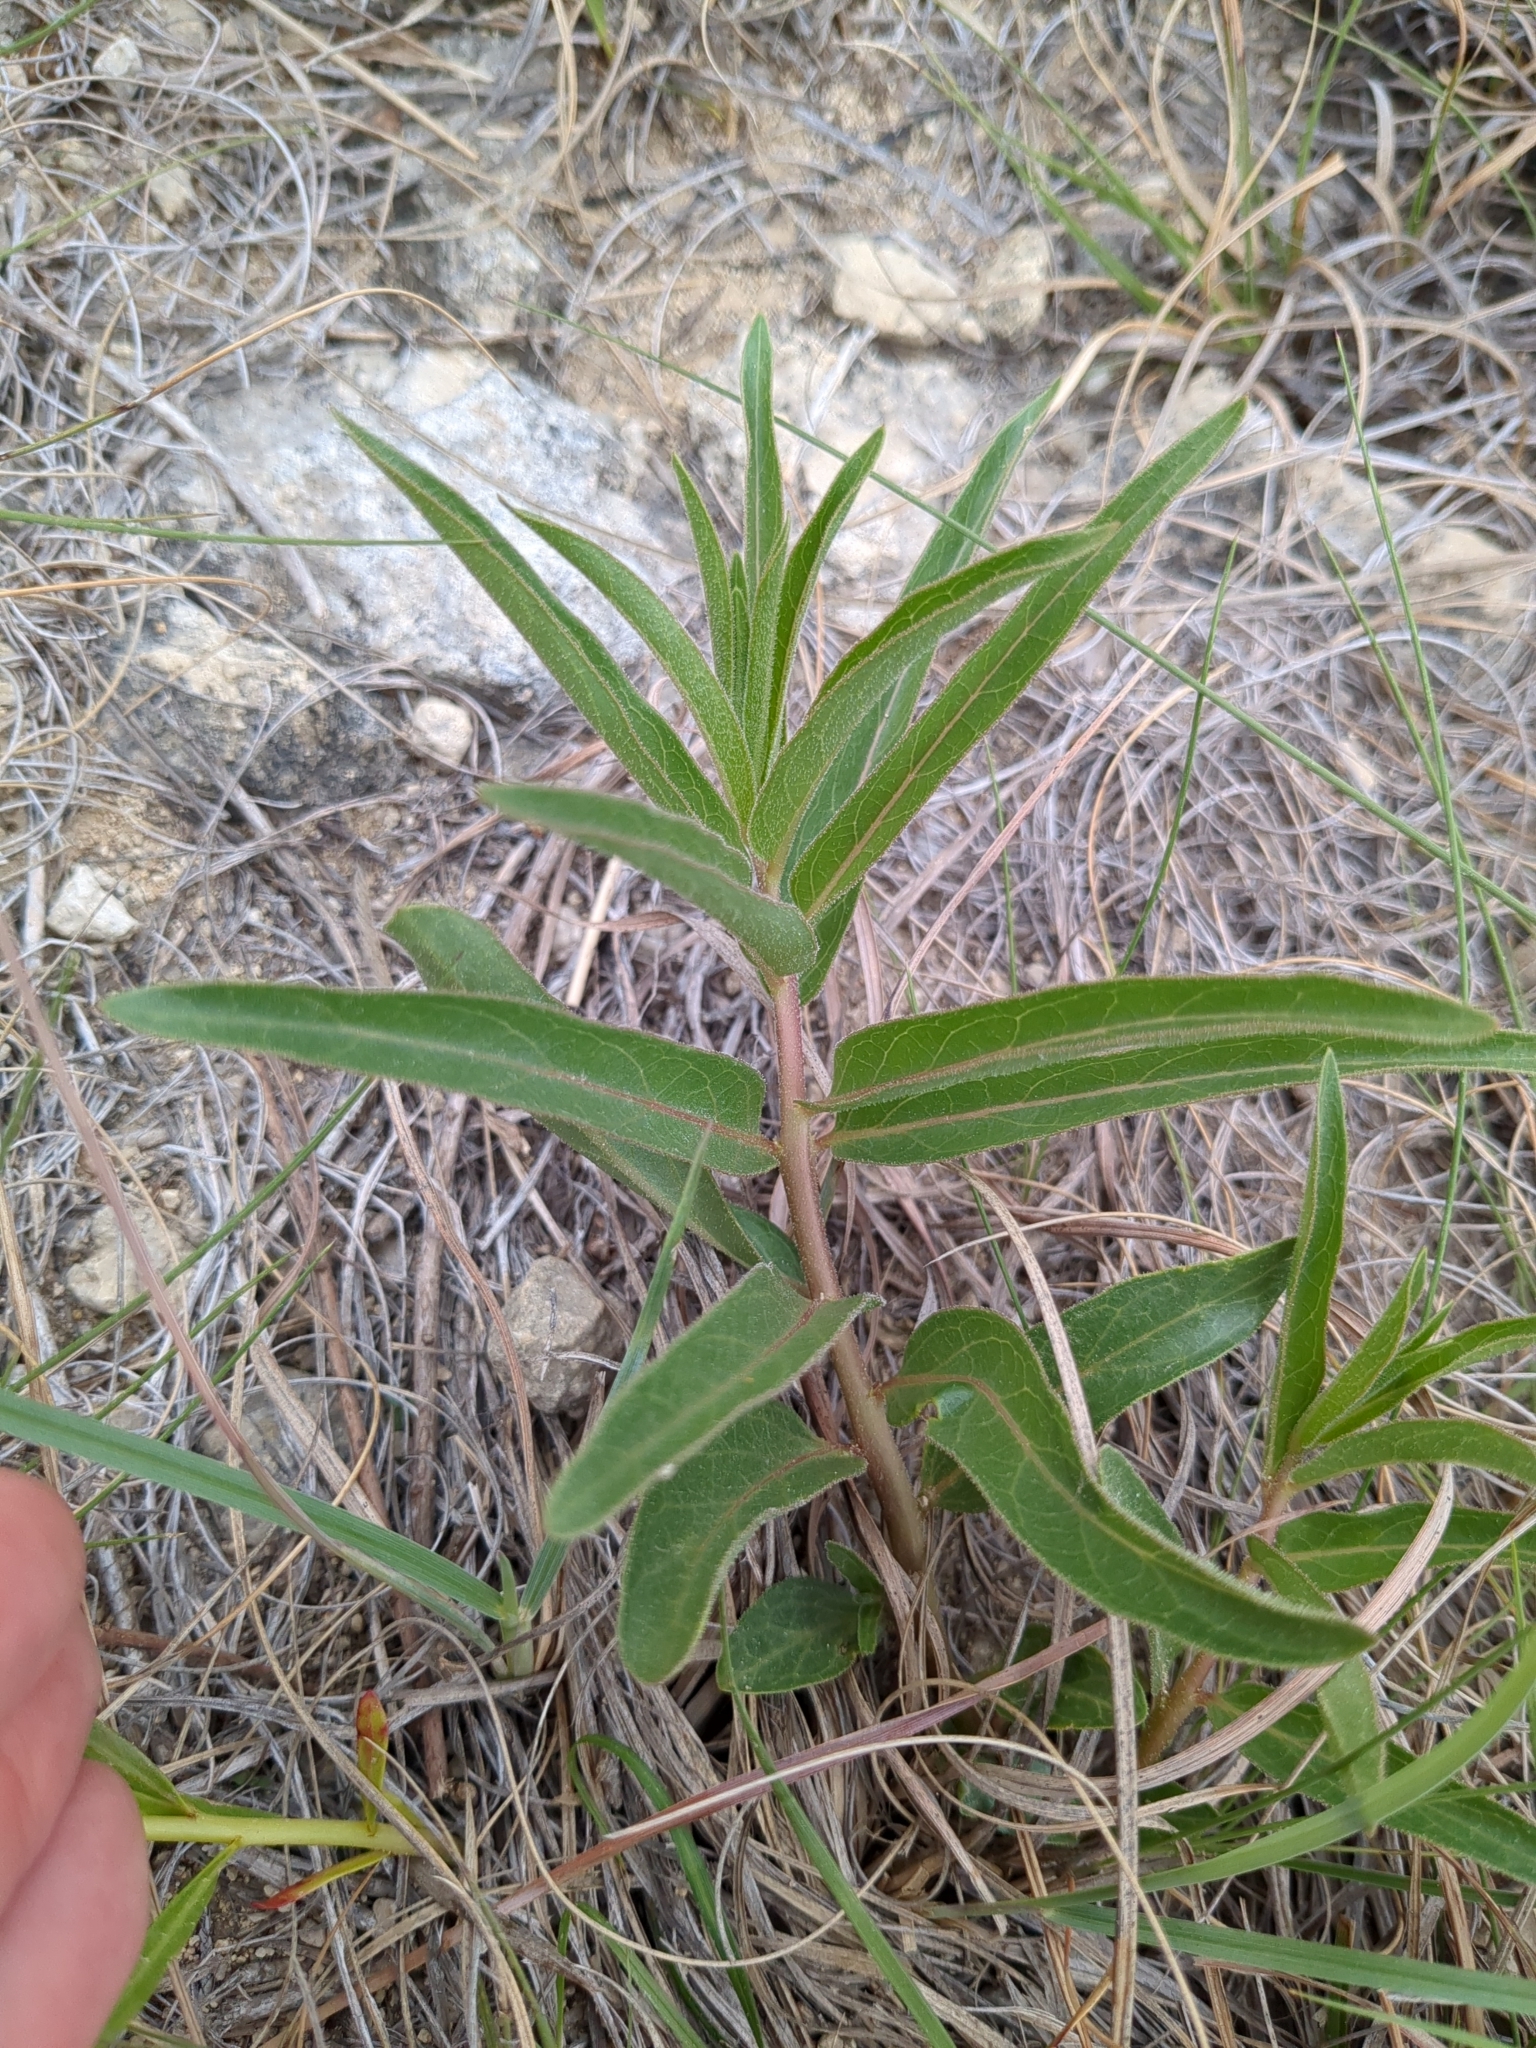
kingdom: Plantae
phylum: Tracheophyta
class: Magnoliopsida
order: Gentianales
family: Apocynaceae
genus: Asclepias
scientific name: Asclepias asperula
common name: Antelope horns
